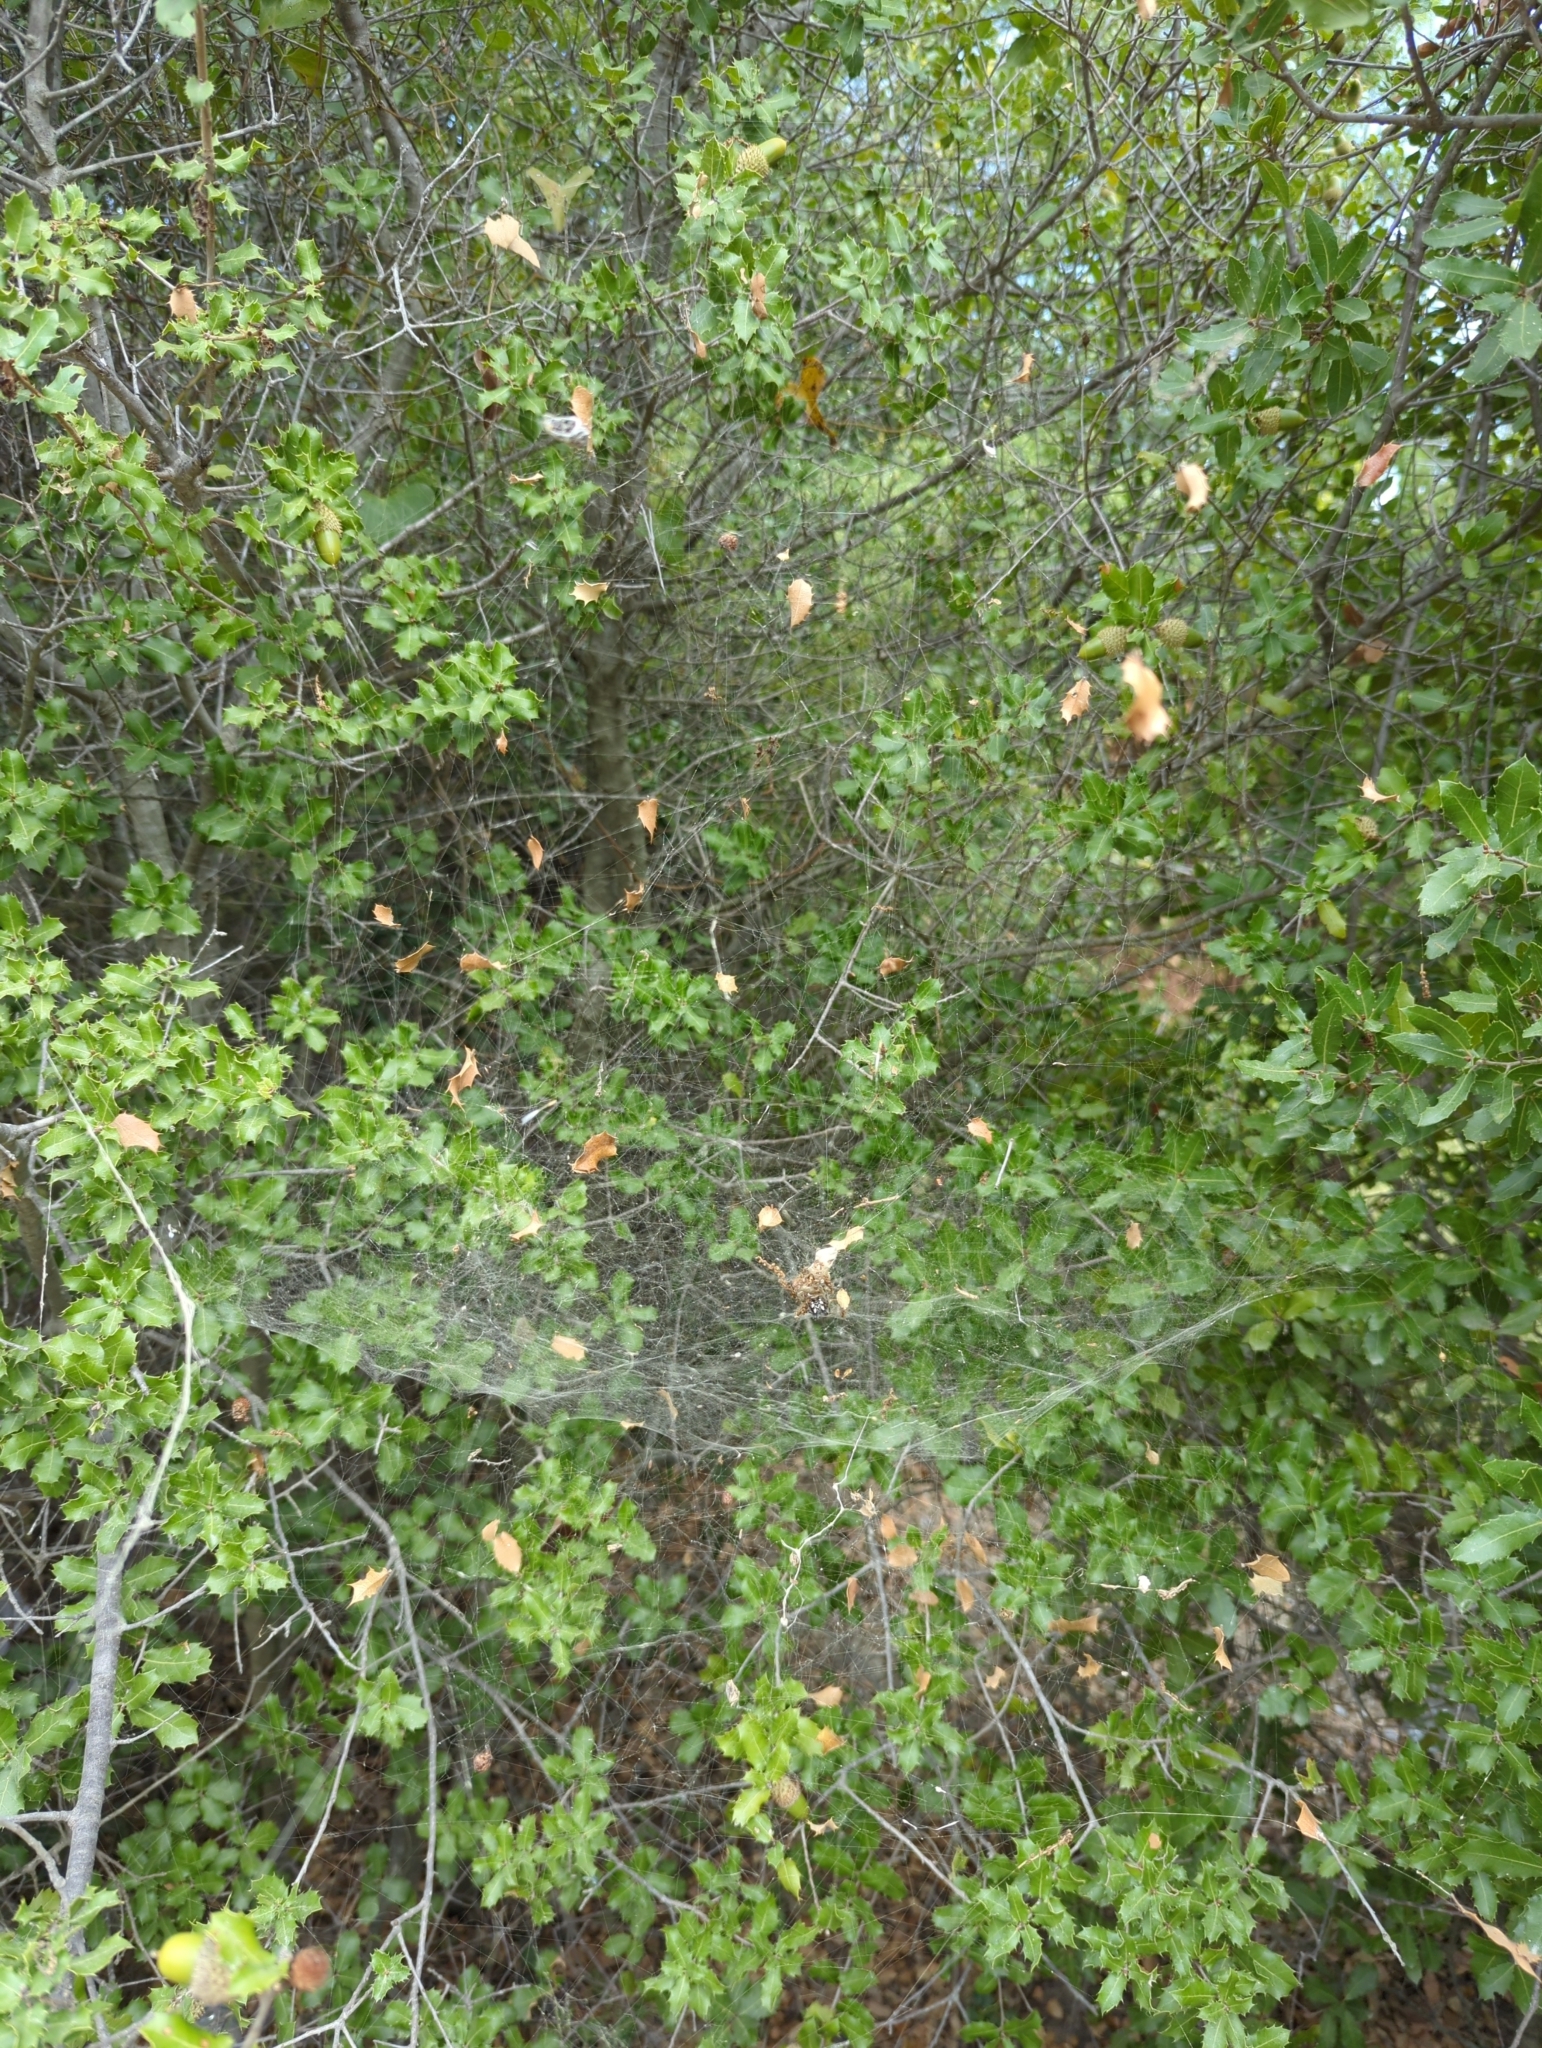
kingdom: Animalia
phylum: Arthropoda
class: Arachnida
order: Araneae
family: Araneidae
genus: Cyrtophora
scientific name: Cyrtophora citricola
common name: Orb weavers
